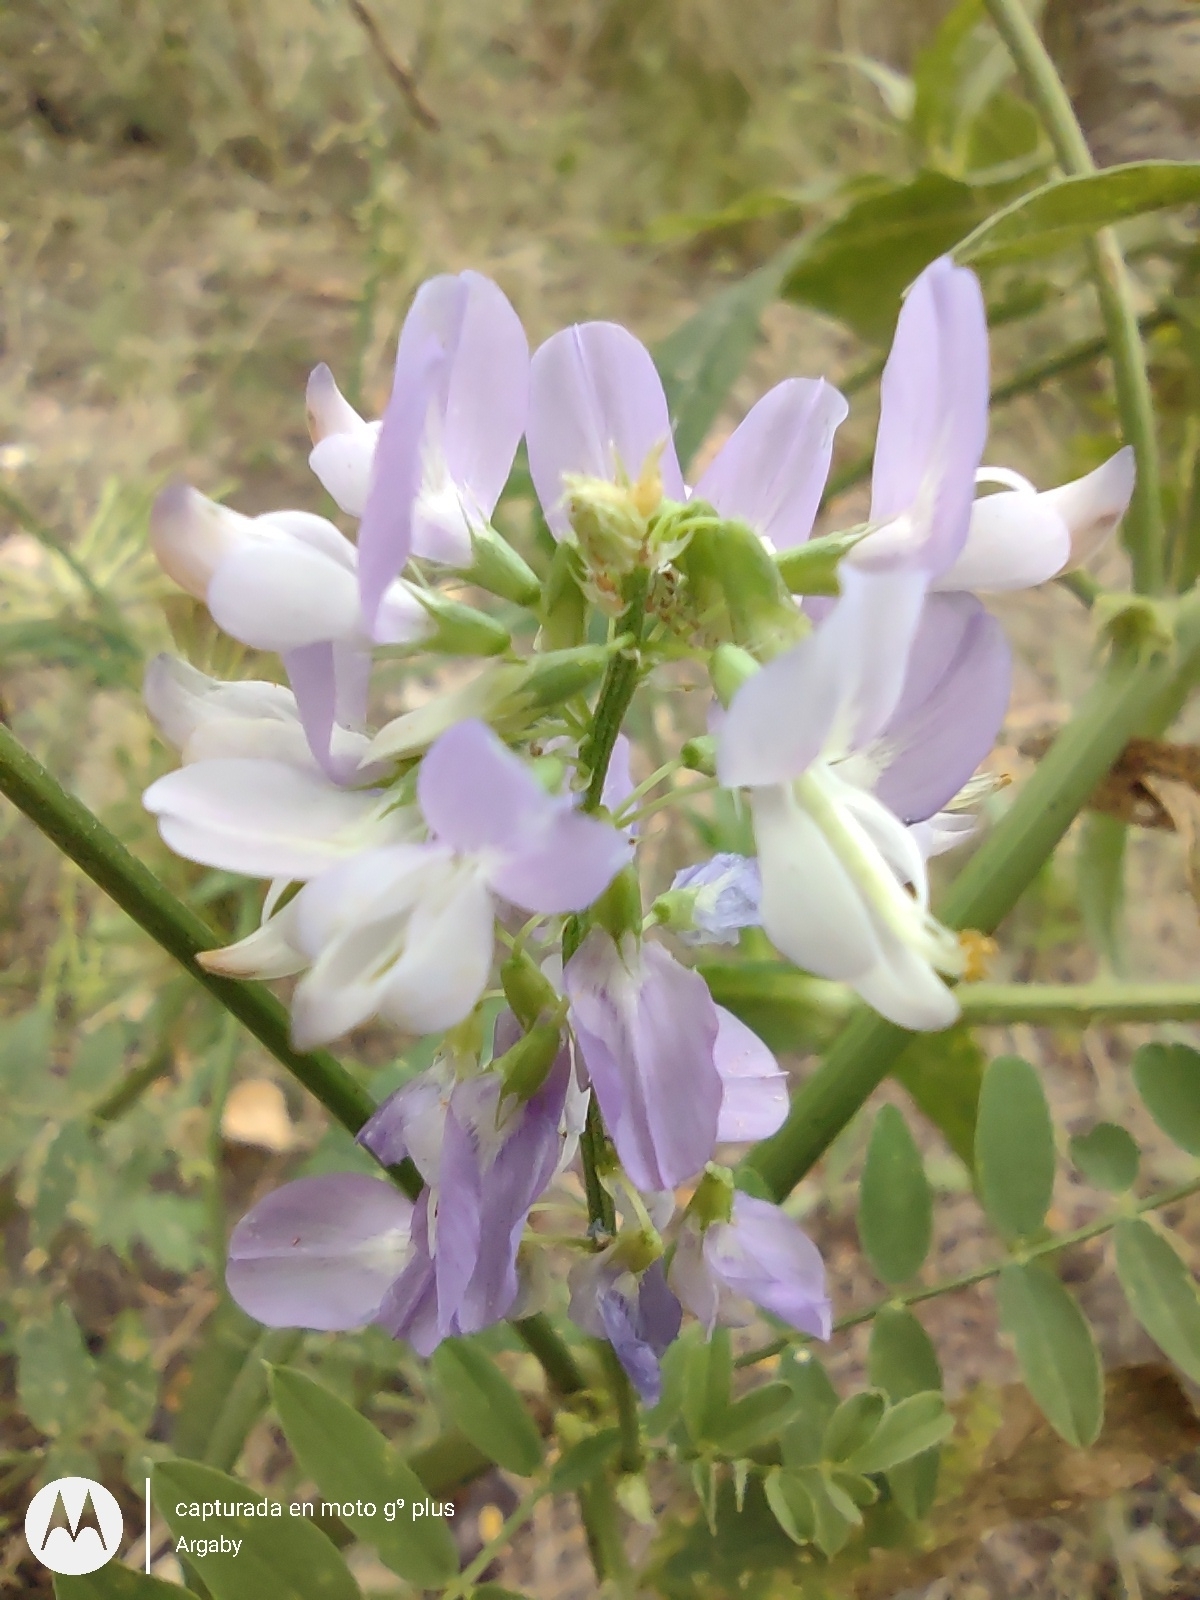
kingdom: Plantae
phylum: Tracheophyta
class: Magnoliopsida
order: Fabales
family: Fabaceae
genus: Galega
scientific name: Galega officinalis
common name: Goat's-rue
